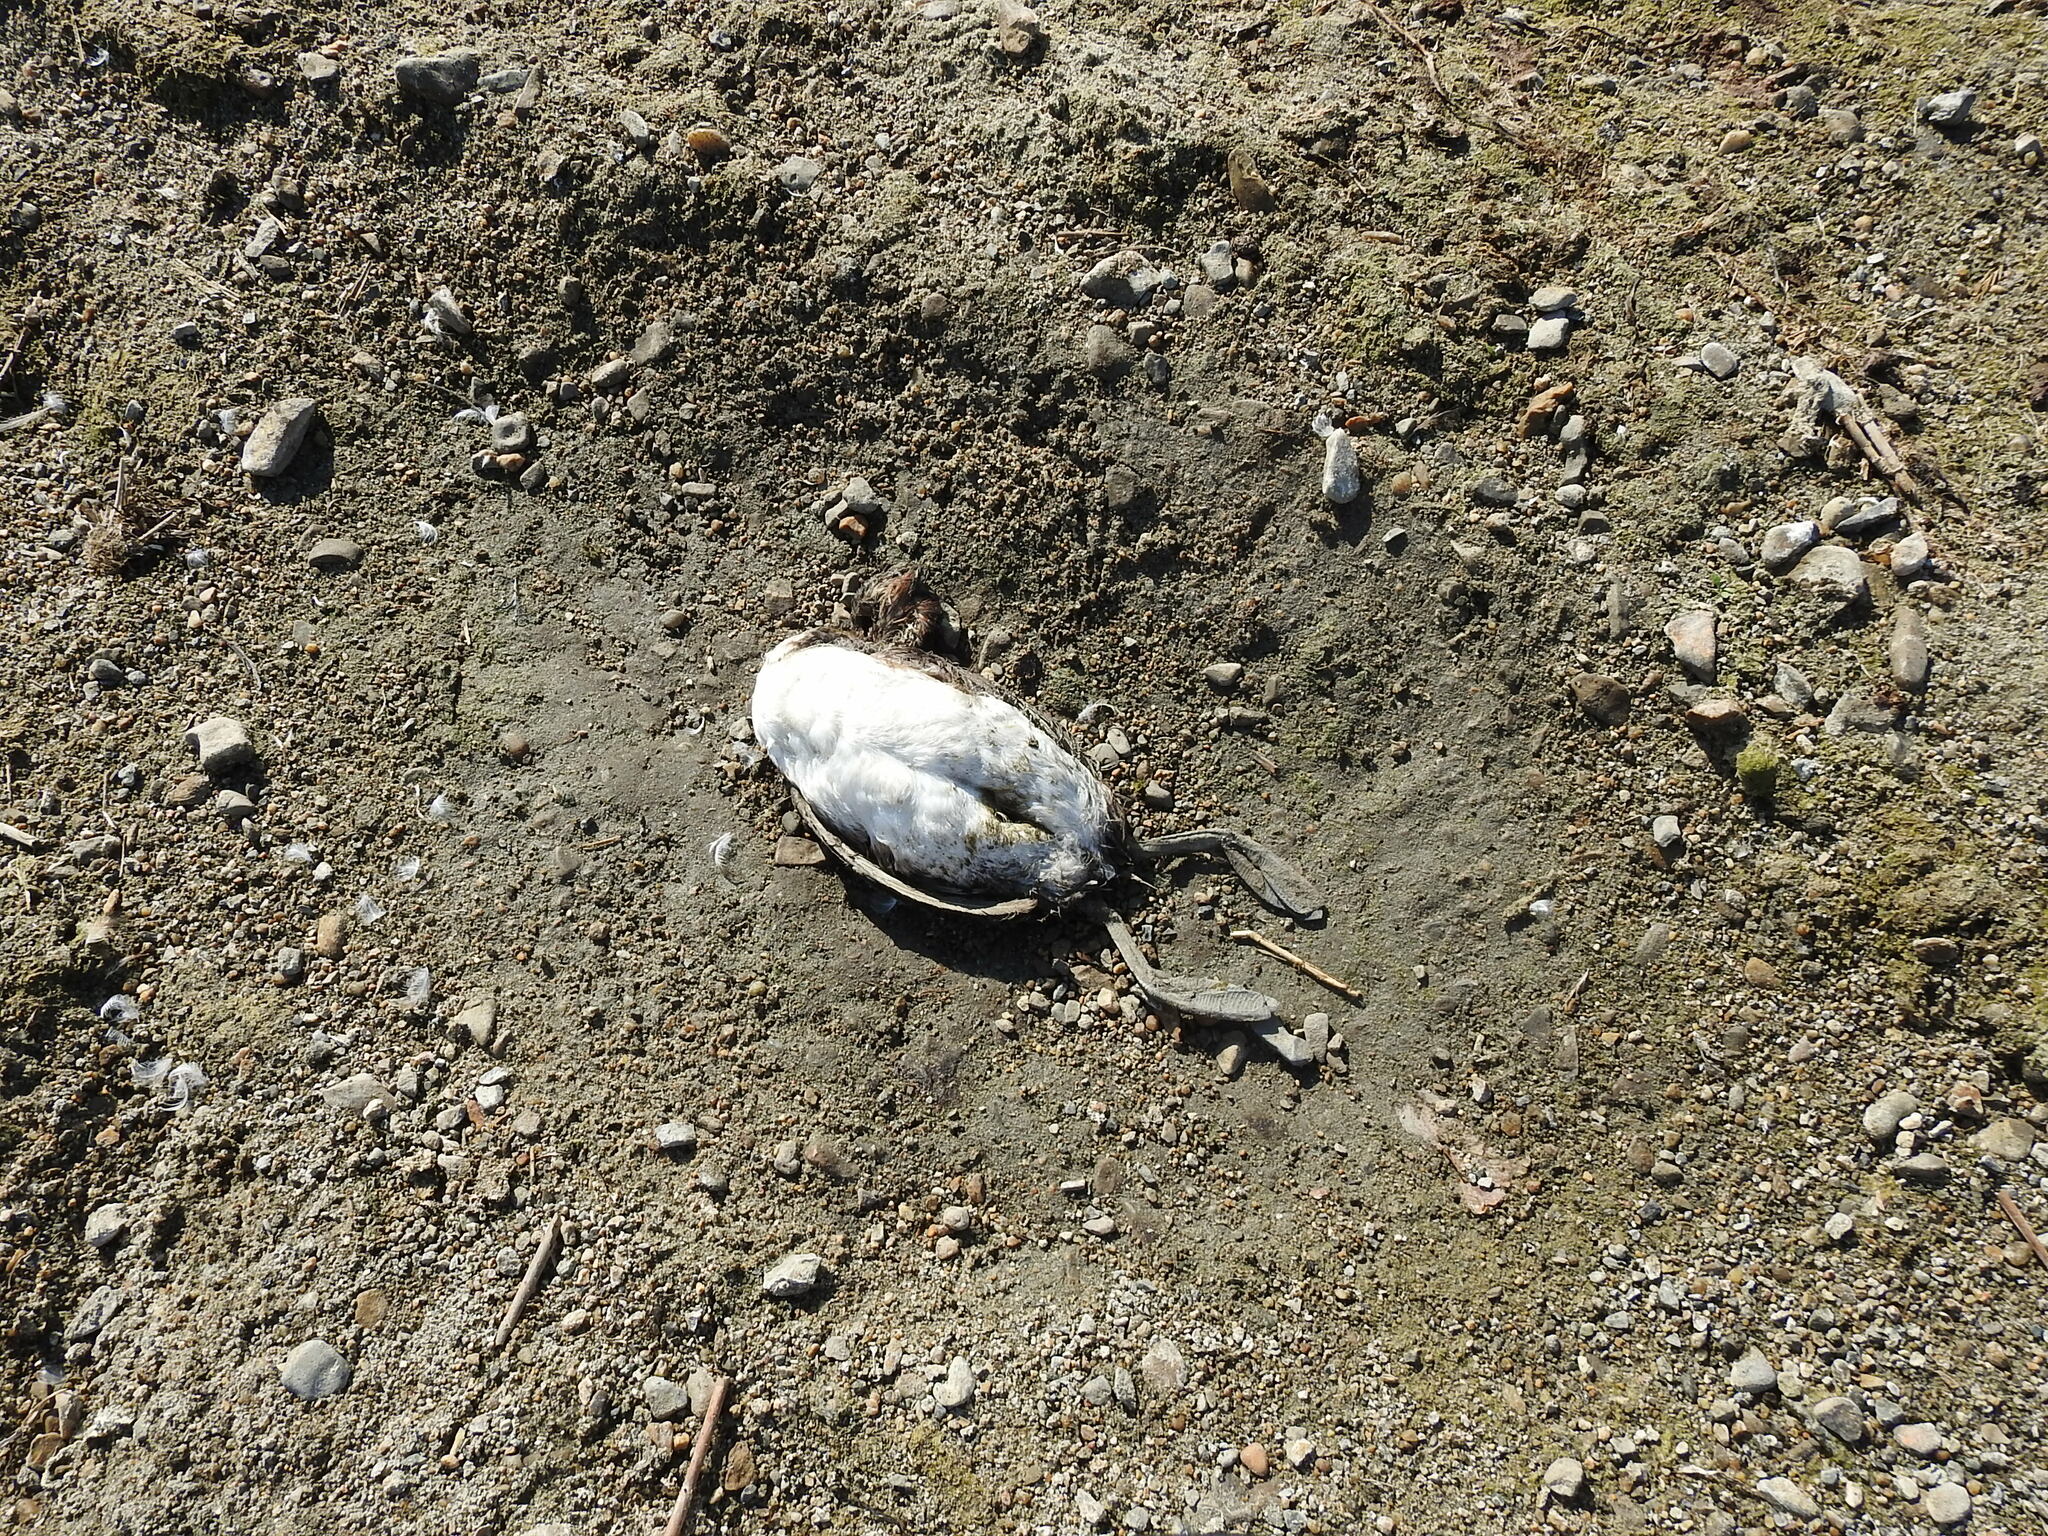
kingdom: Animalia
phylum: Chordata
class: Aves
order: Podicipediformes
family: Podicipedidae
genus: Podiceps
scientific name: Podiceps cristatus
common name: Great crested grebe
